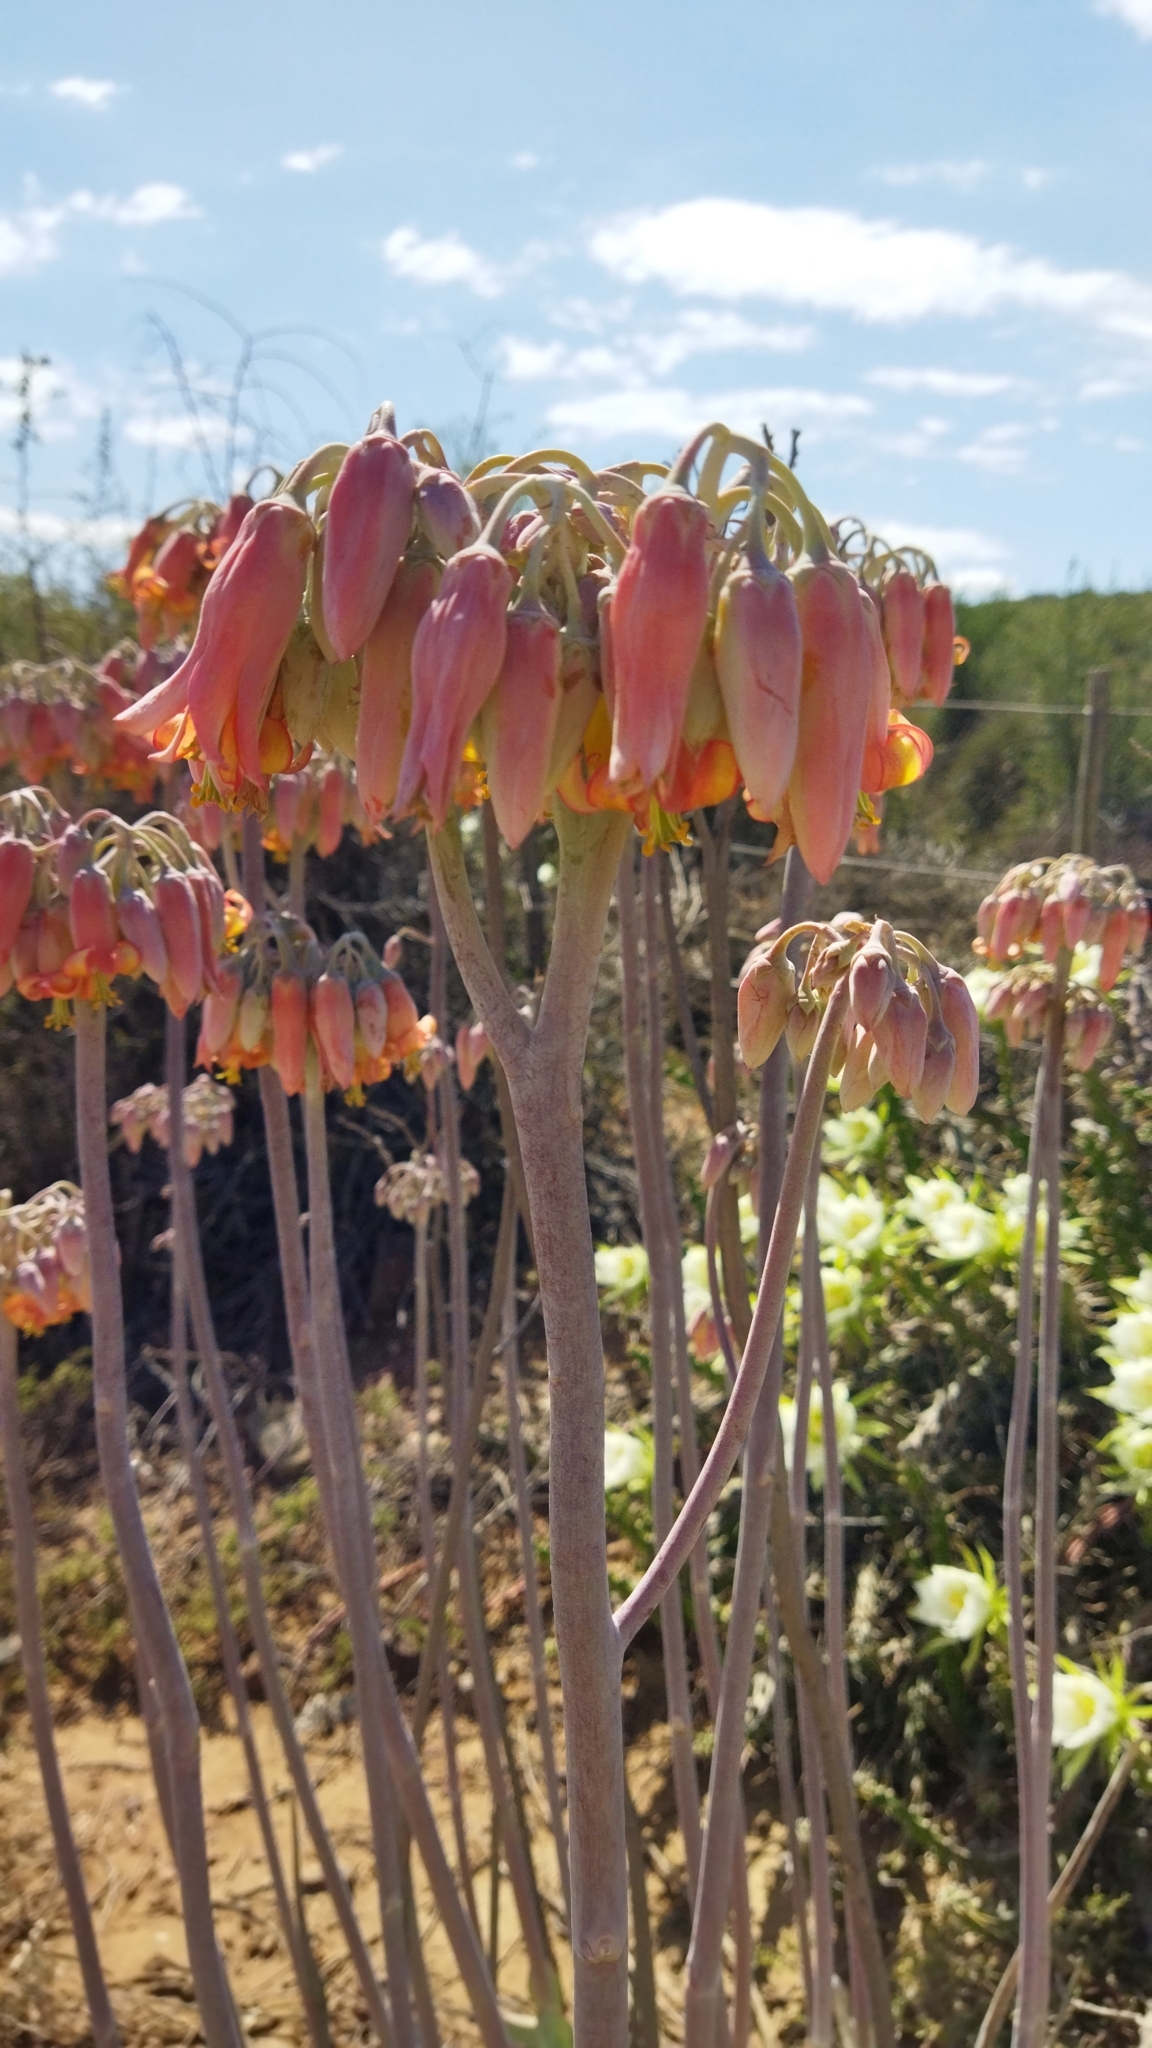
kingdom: Plantae
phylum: Tracheophyta
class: Magnoliopsida
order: Saxifragales
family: Crassulaceae
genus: Cotyledon
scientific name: Cotyledon orbiculata
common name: Pig's ear
